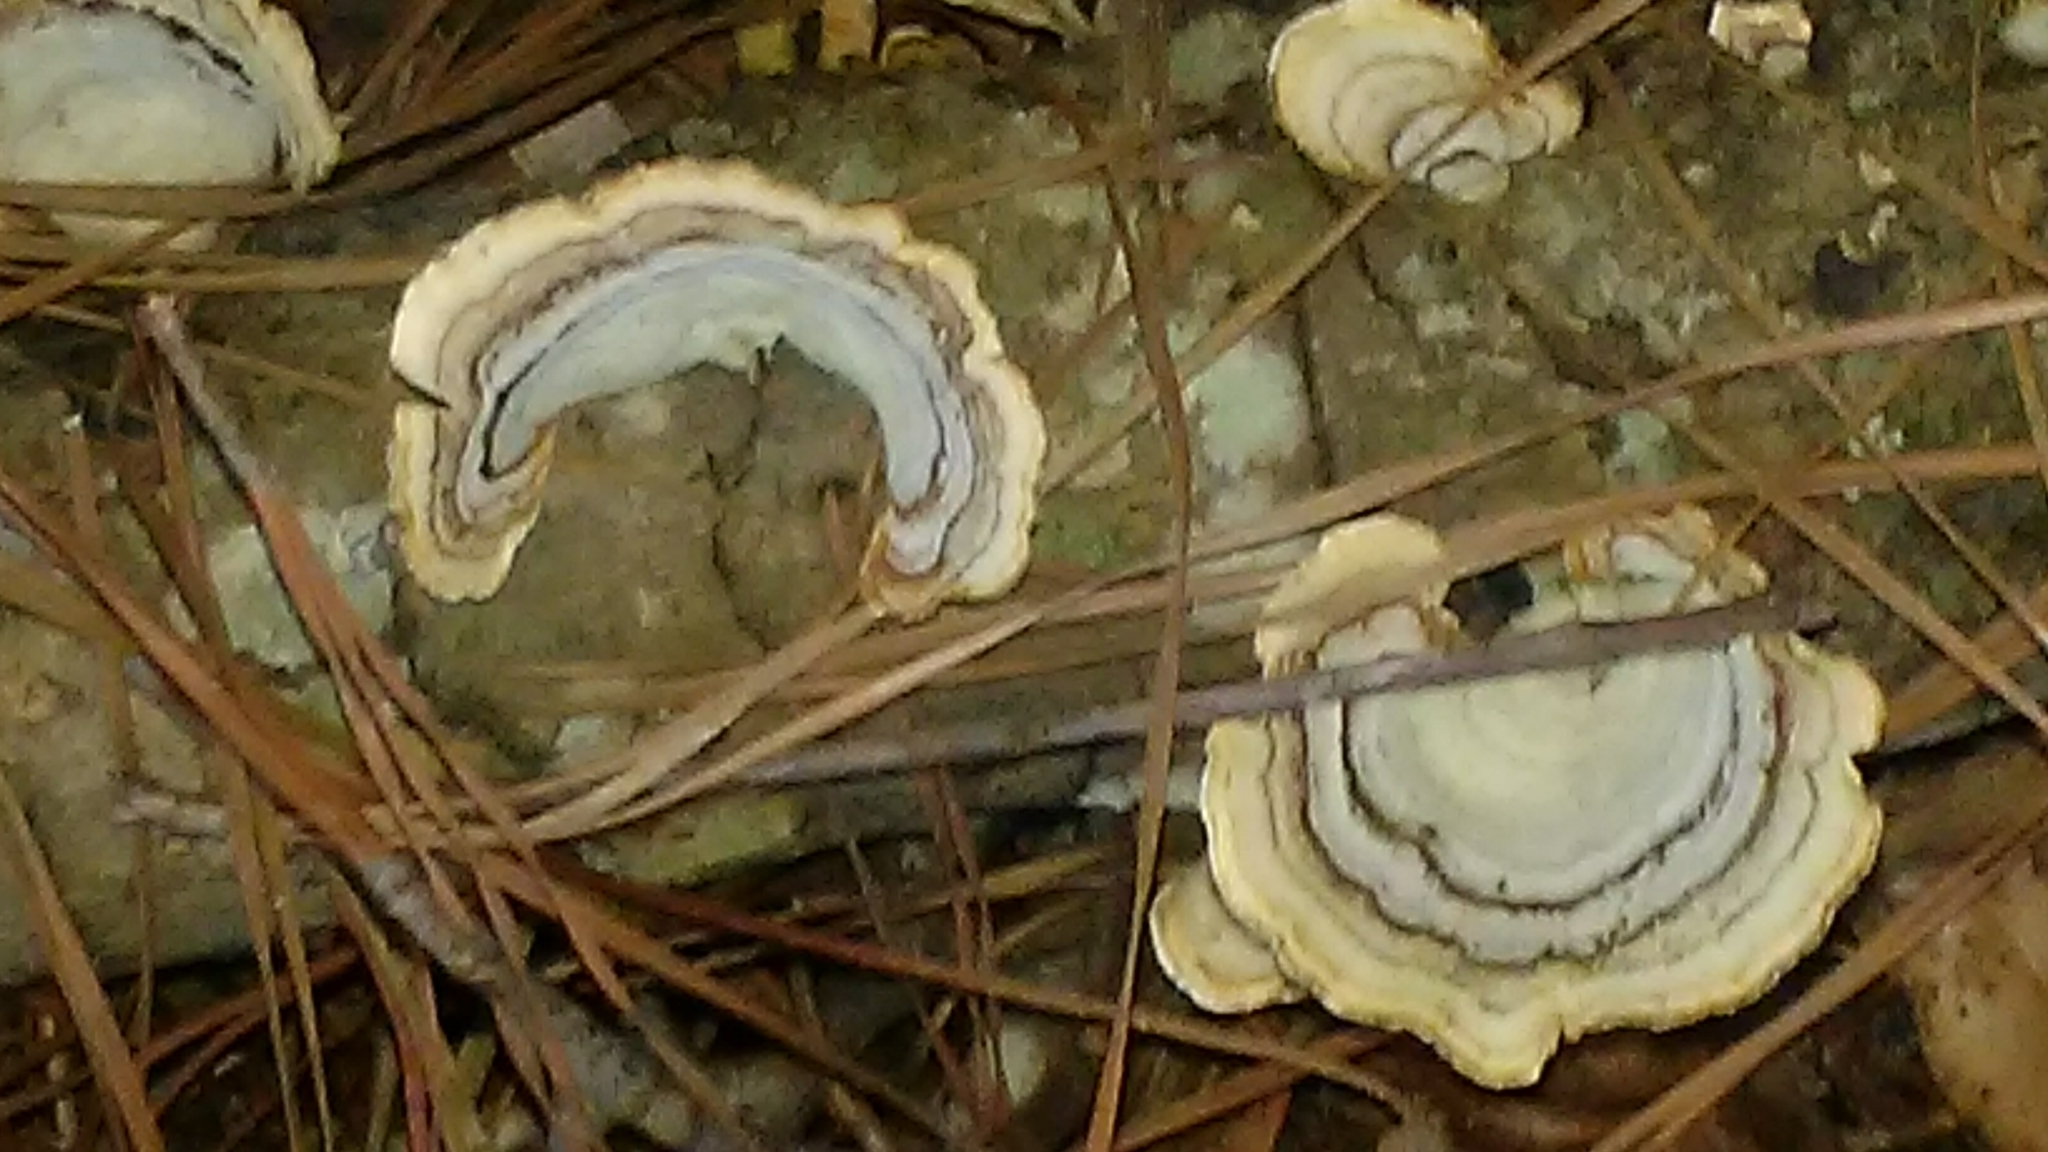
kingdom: Fungi
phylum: Basidiomycota
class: Agaricomycetes
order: Russulales
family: Stereaceae
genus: Stereum
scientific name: Stereum ostrea
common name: False turkeytail
